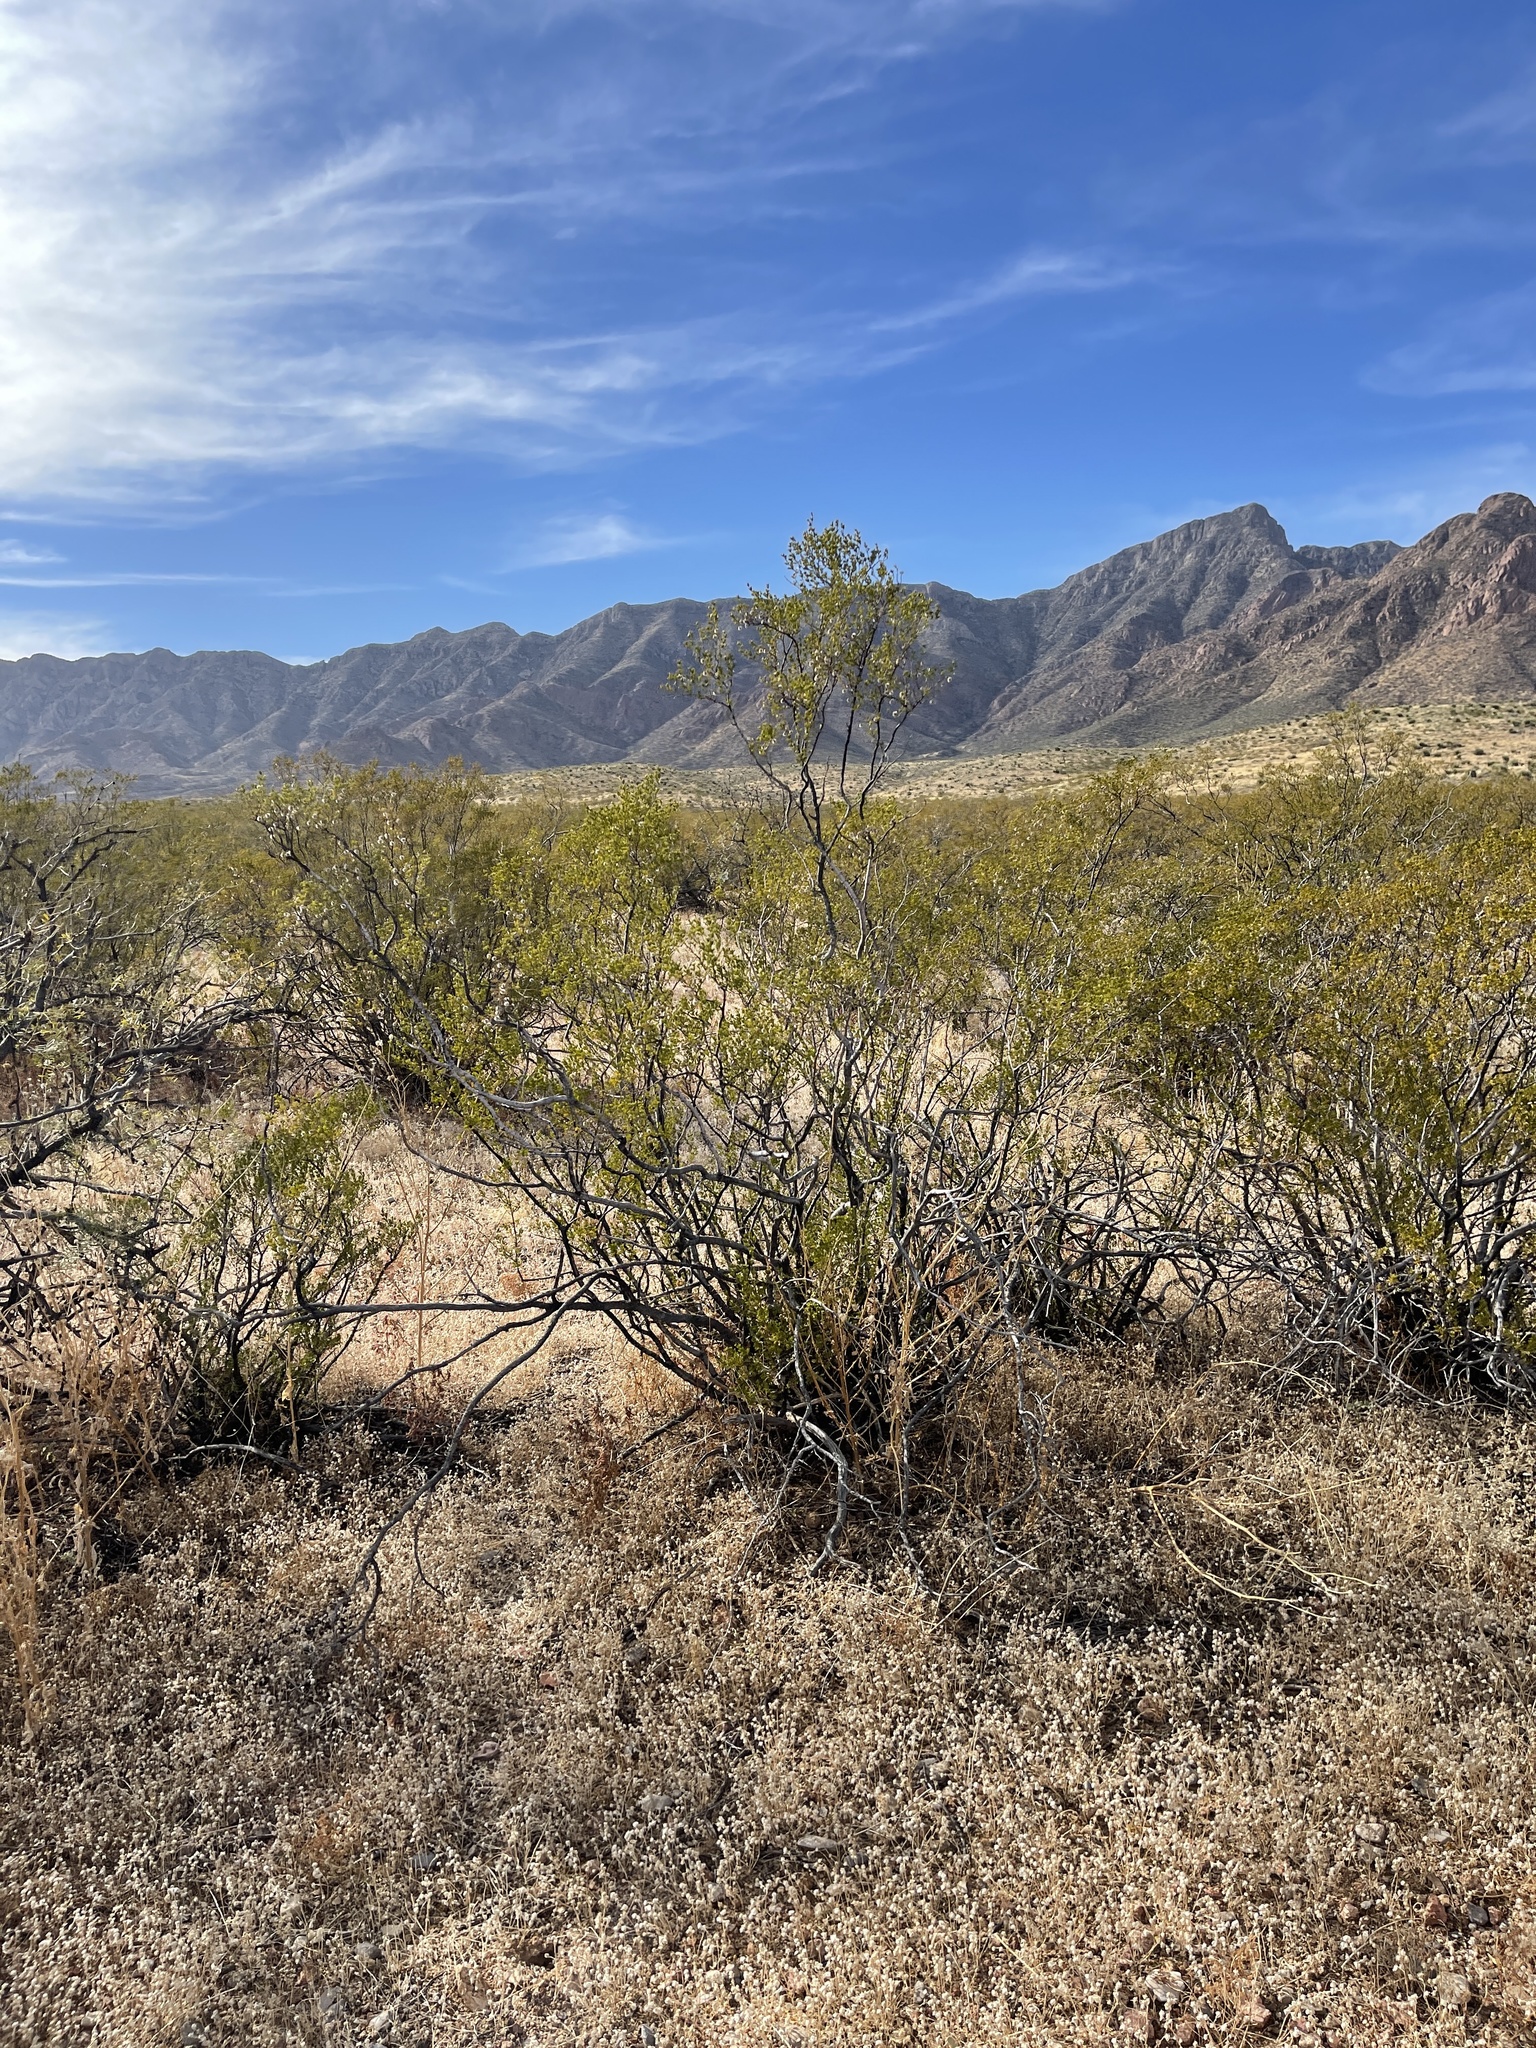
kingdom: Plantae
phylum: Tracheophyta
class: Magnoliopsida
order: Zygophyllales
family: Zygophyllaceae
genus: Larrea
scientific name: Larrea tridentata
